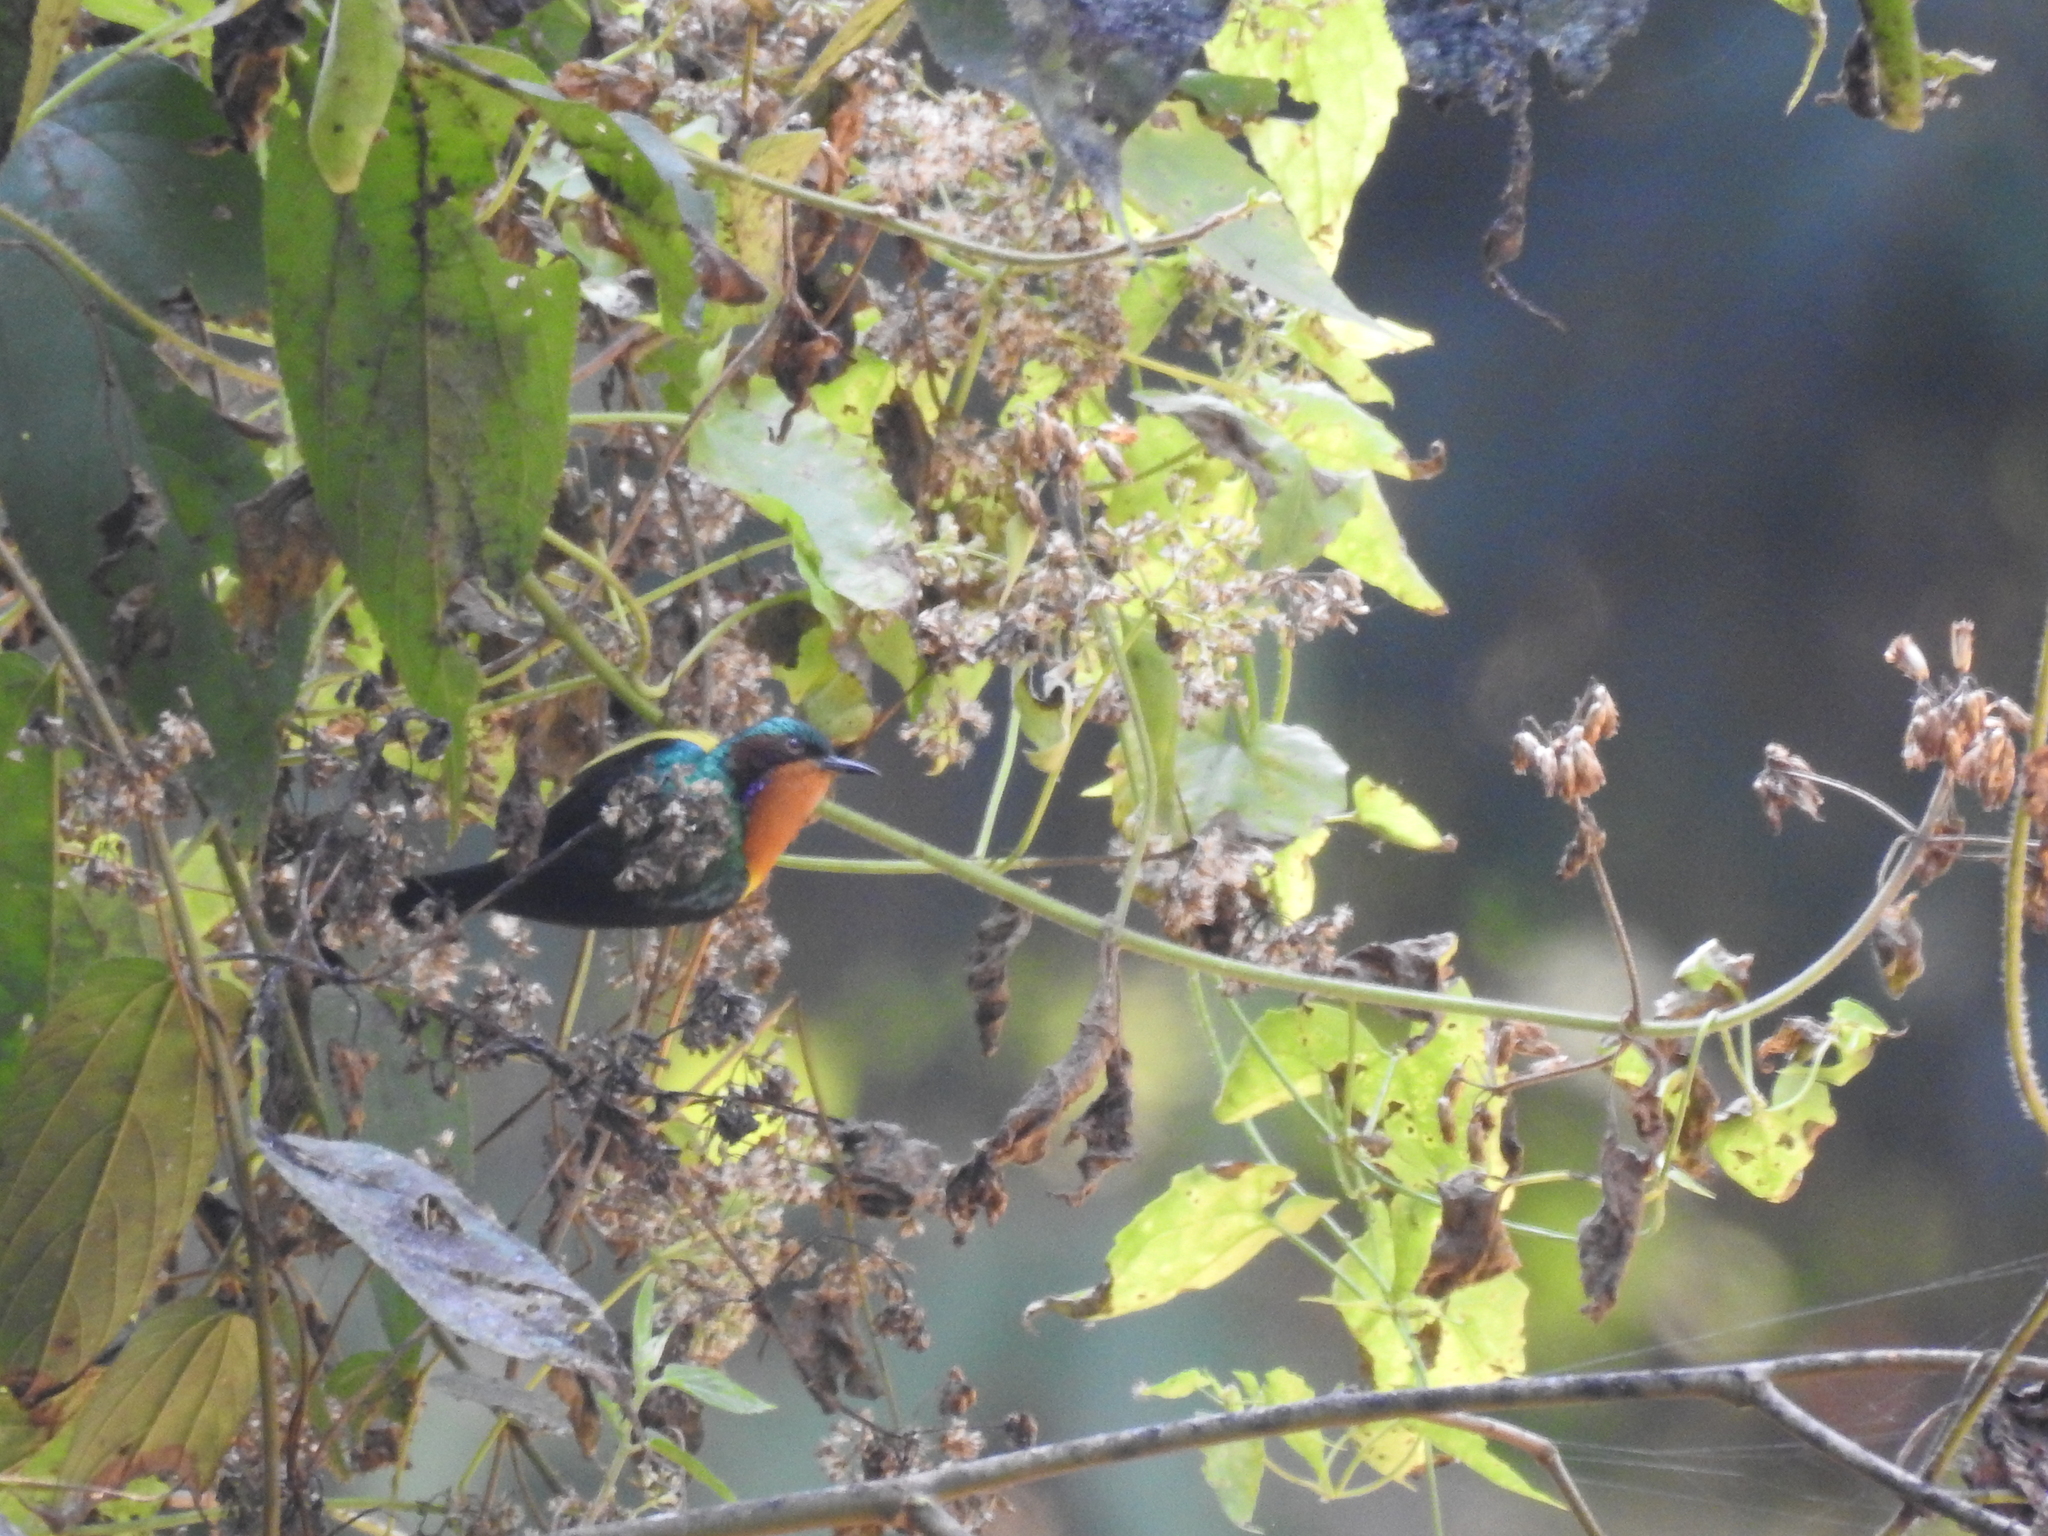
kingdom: Animalia
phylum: Chordata
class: Aves
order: Passeriformes
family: Nectariniidae
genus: Chalcoparia
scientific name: Chalcoparia singalensis
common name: Ruby-cheeked sunbird
